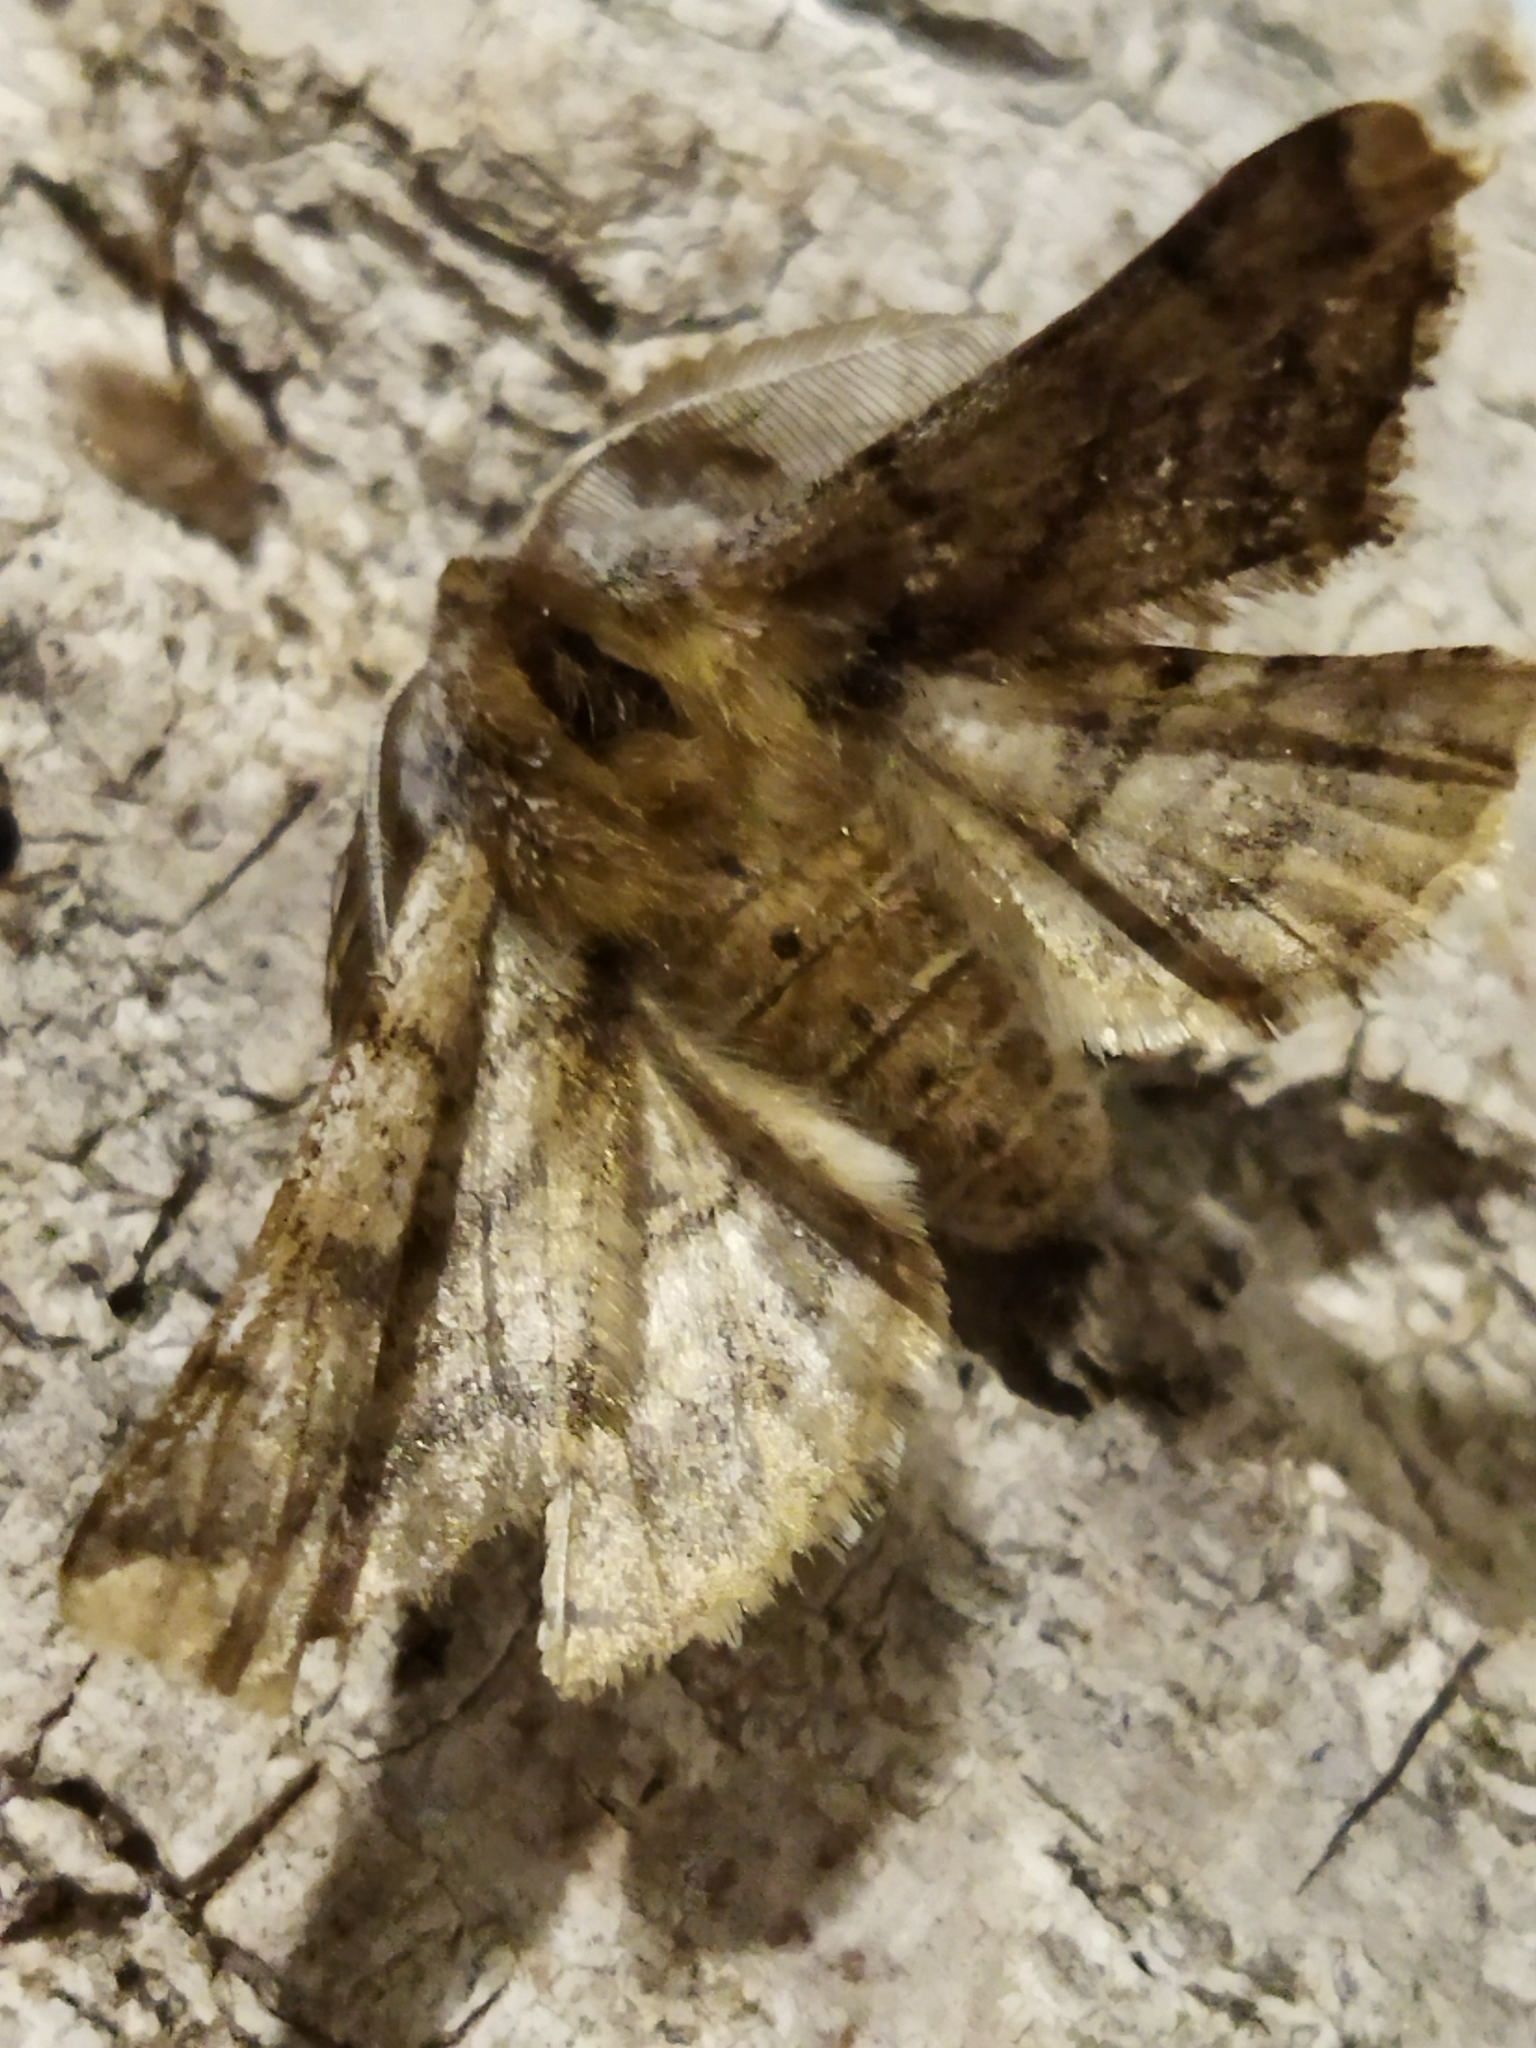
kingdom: Animalia
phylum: Arthropoda
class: Insecta
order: Lepidoptera
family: Geometridae
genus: Apochima
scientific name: Apochima flabellaria
